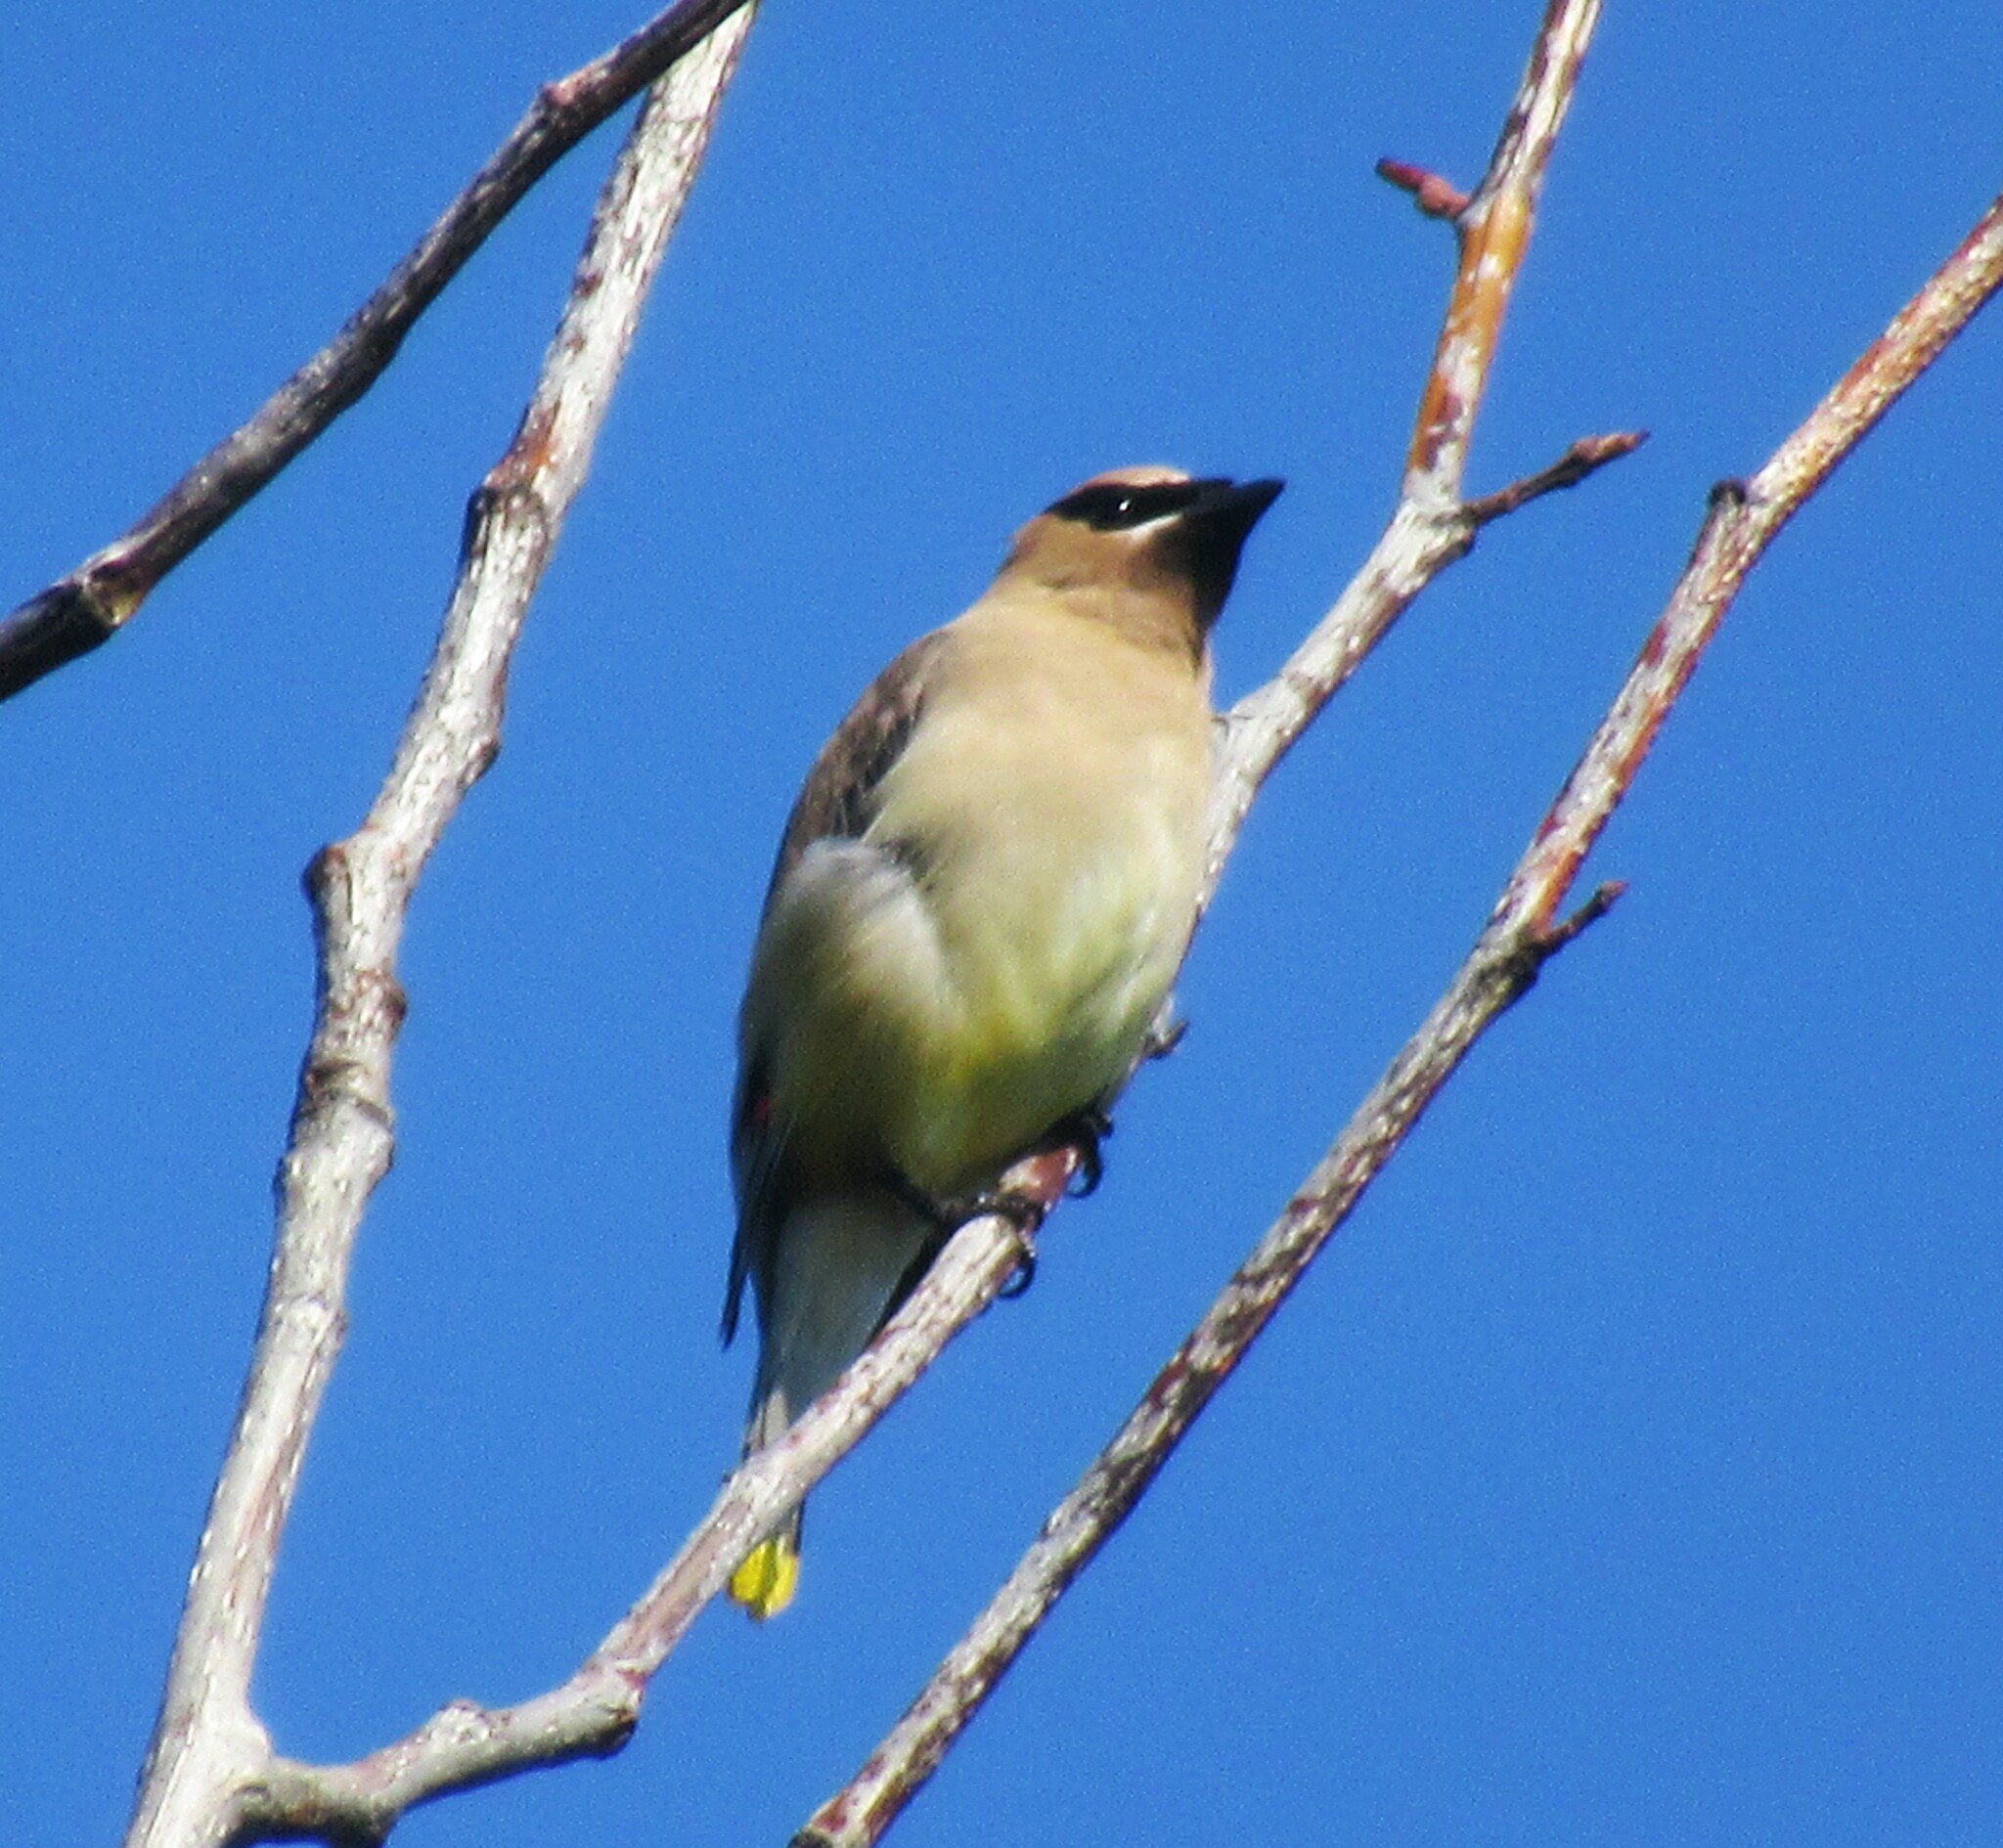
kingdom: Animalia
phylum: Chordata
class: Aves
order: Passeriformes
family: Bombycillidae
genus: Bombycilla
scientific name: Bombycilla cedrorum
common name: Cedar waxwing
